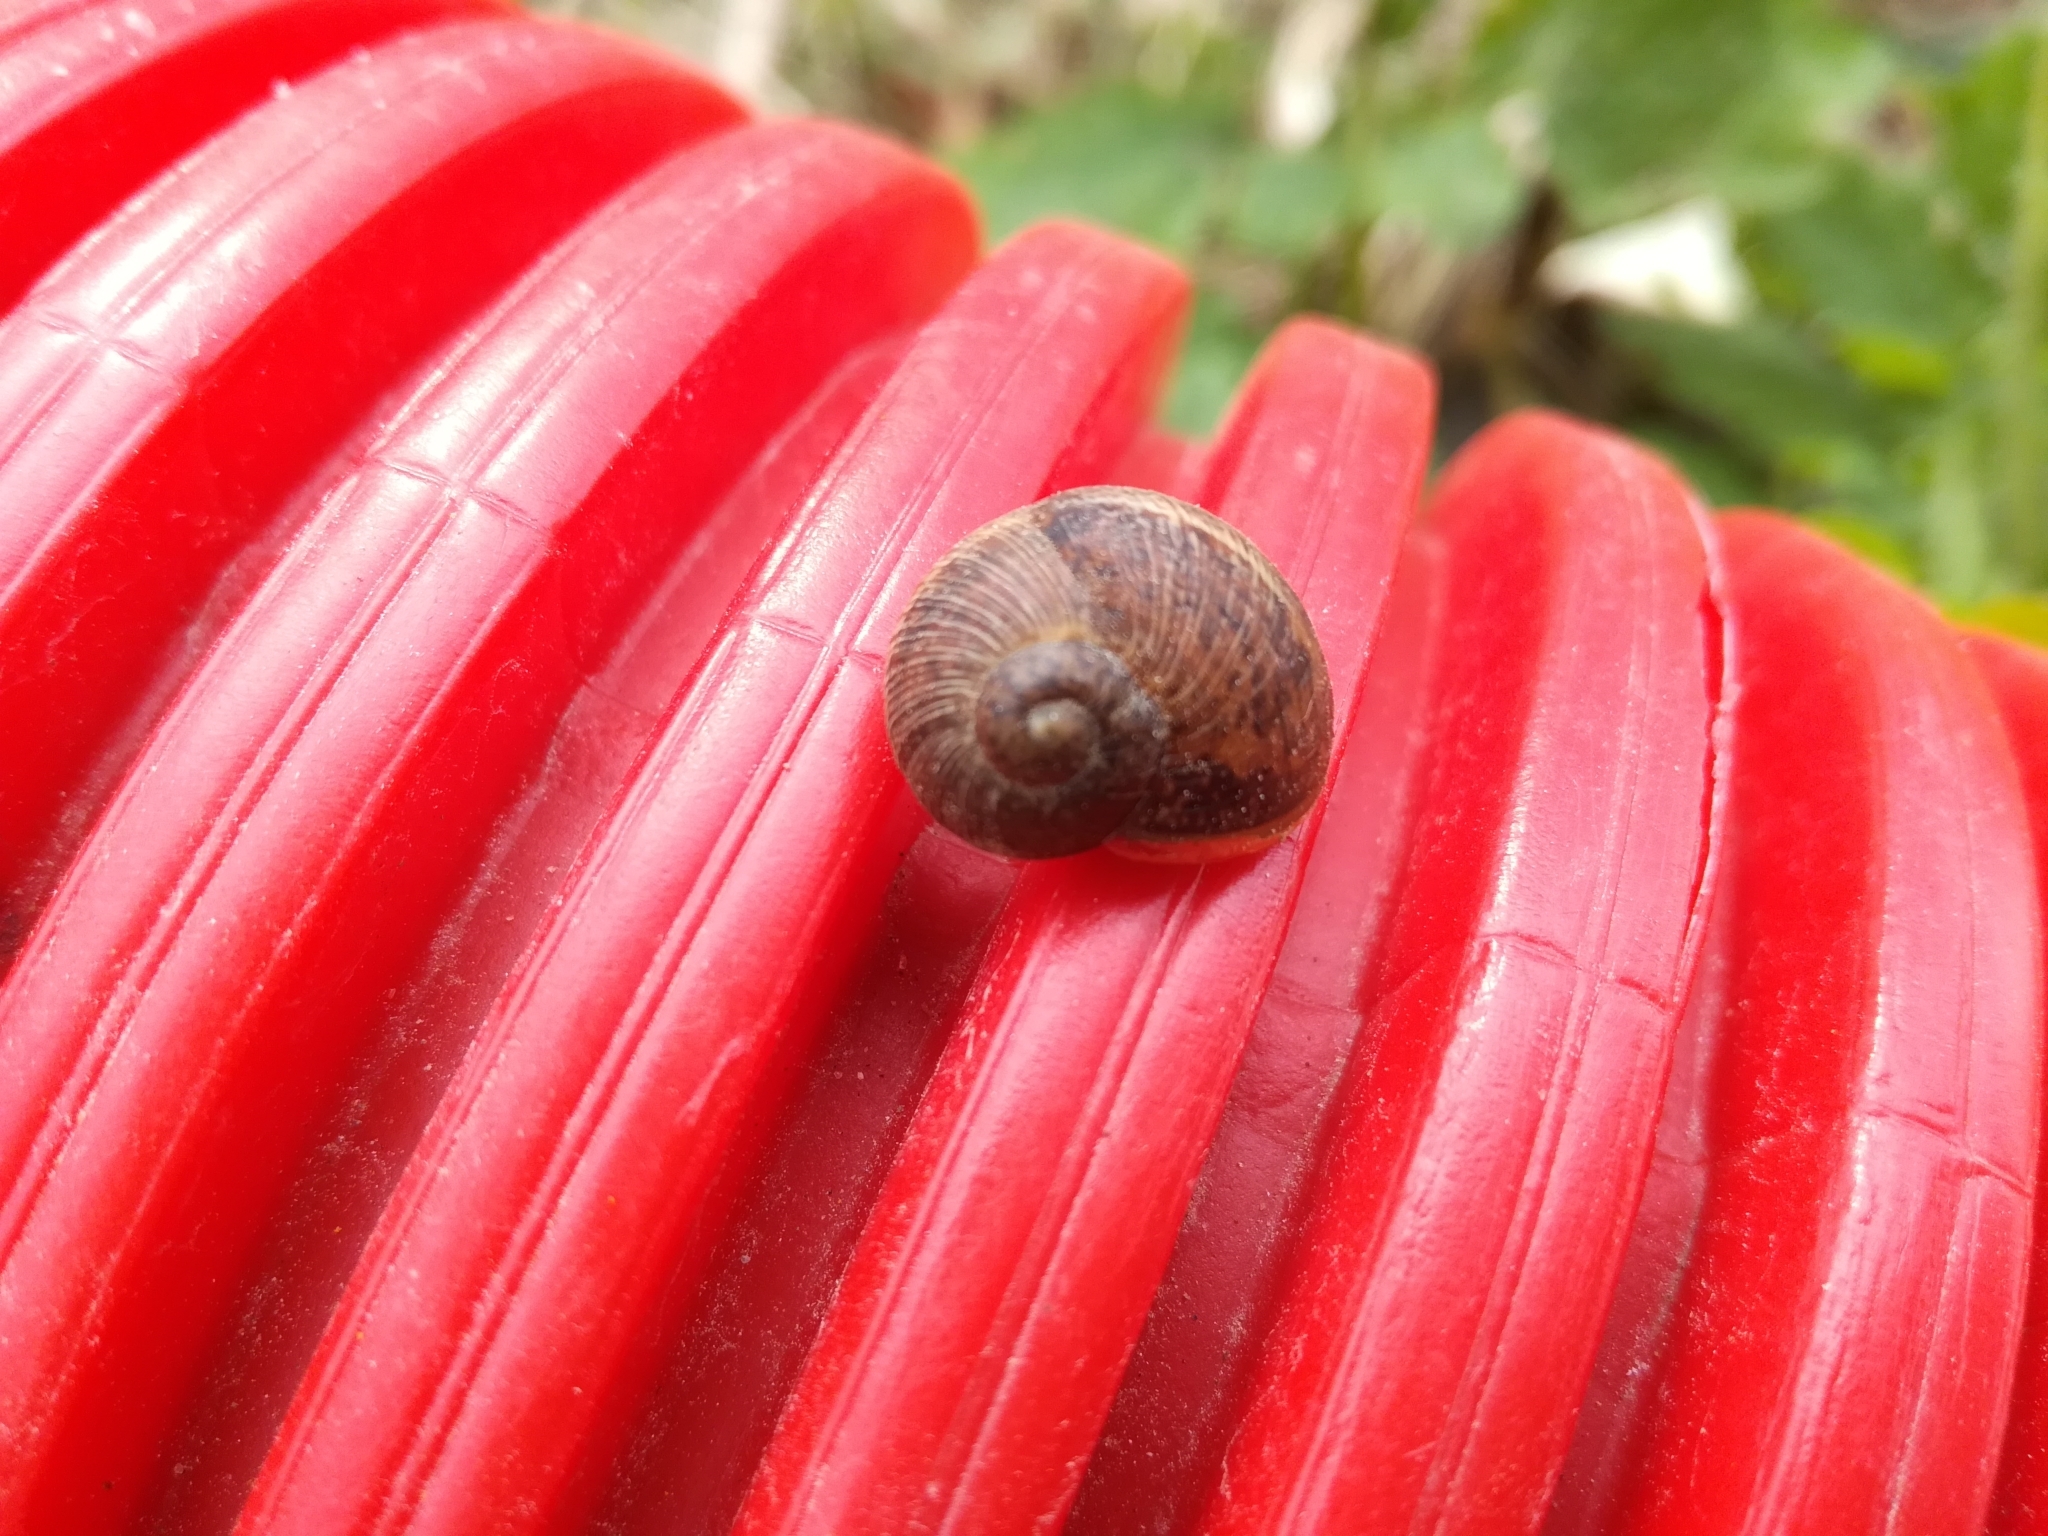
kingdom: Animalia
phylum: Mollusca
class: Gastropoda
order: Stylommatophora
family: Helicidae
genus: Cornu
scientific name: Cornu aspersum
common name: Brown garden snail
